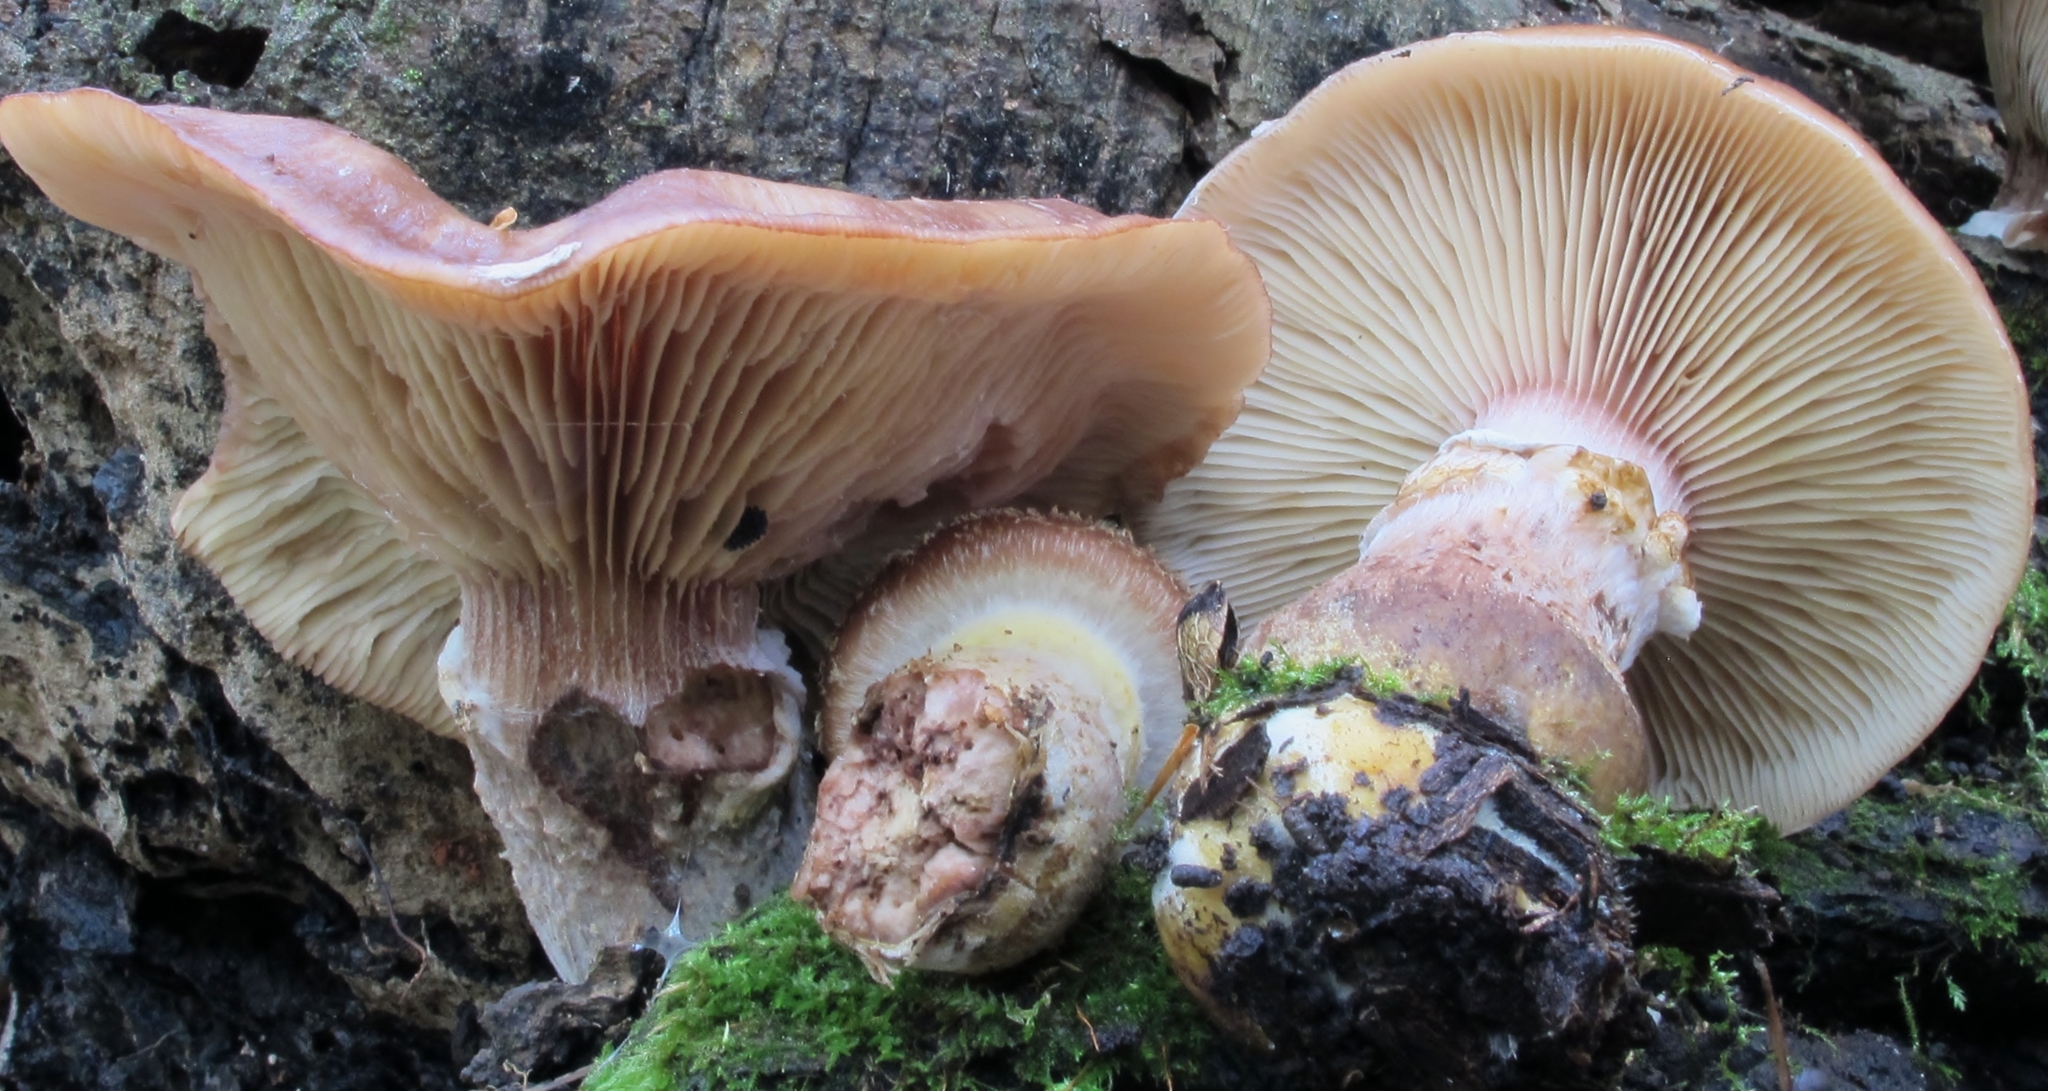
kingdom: Fungi
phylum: Basidiomycota
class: Agaricomycetes
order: Agaricales
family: Physalacriaceae
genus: Armillaria
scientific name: Armillaria gallica
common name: Bulbous honey fungus
